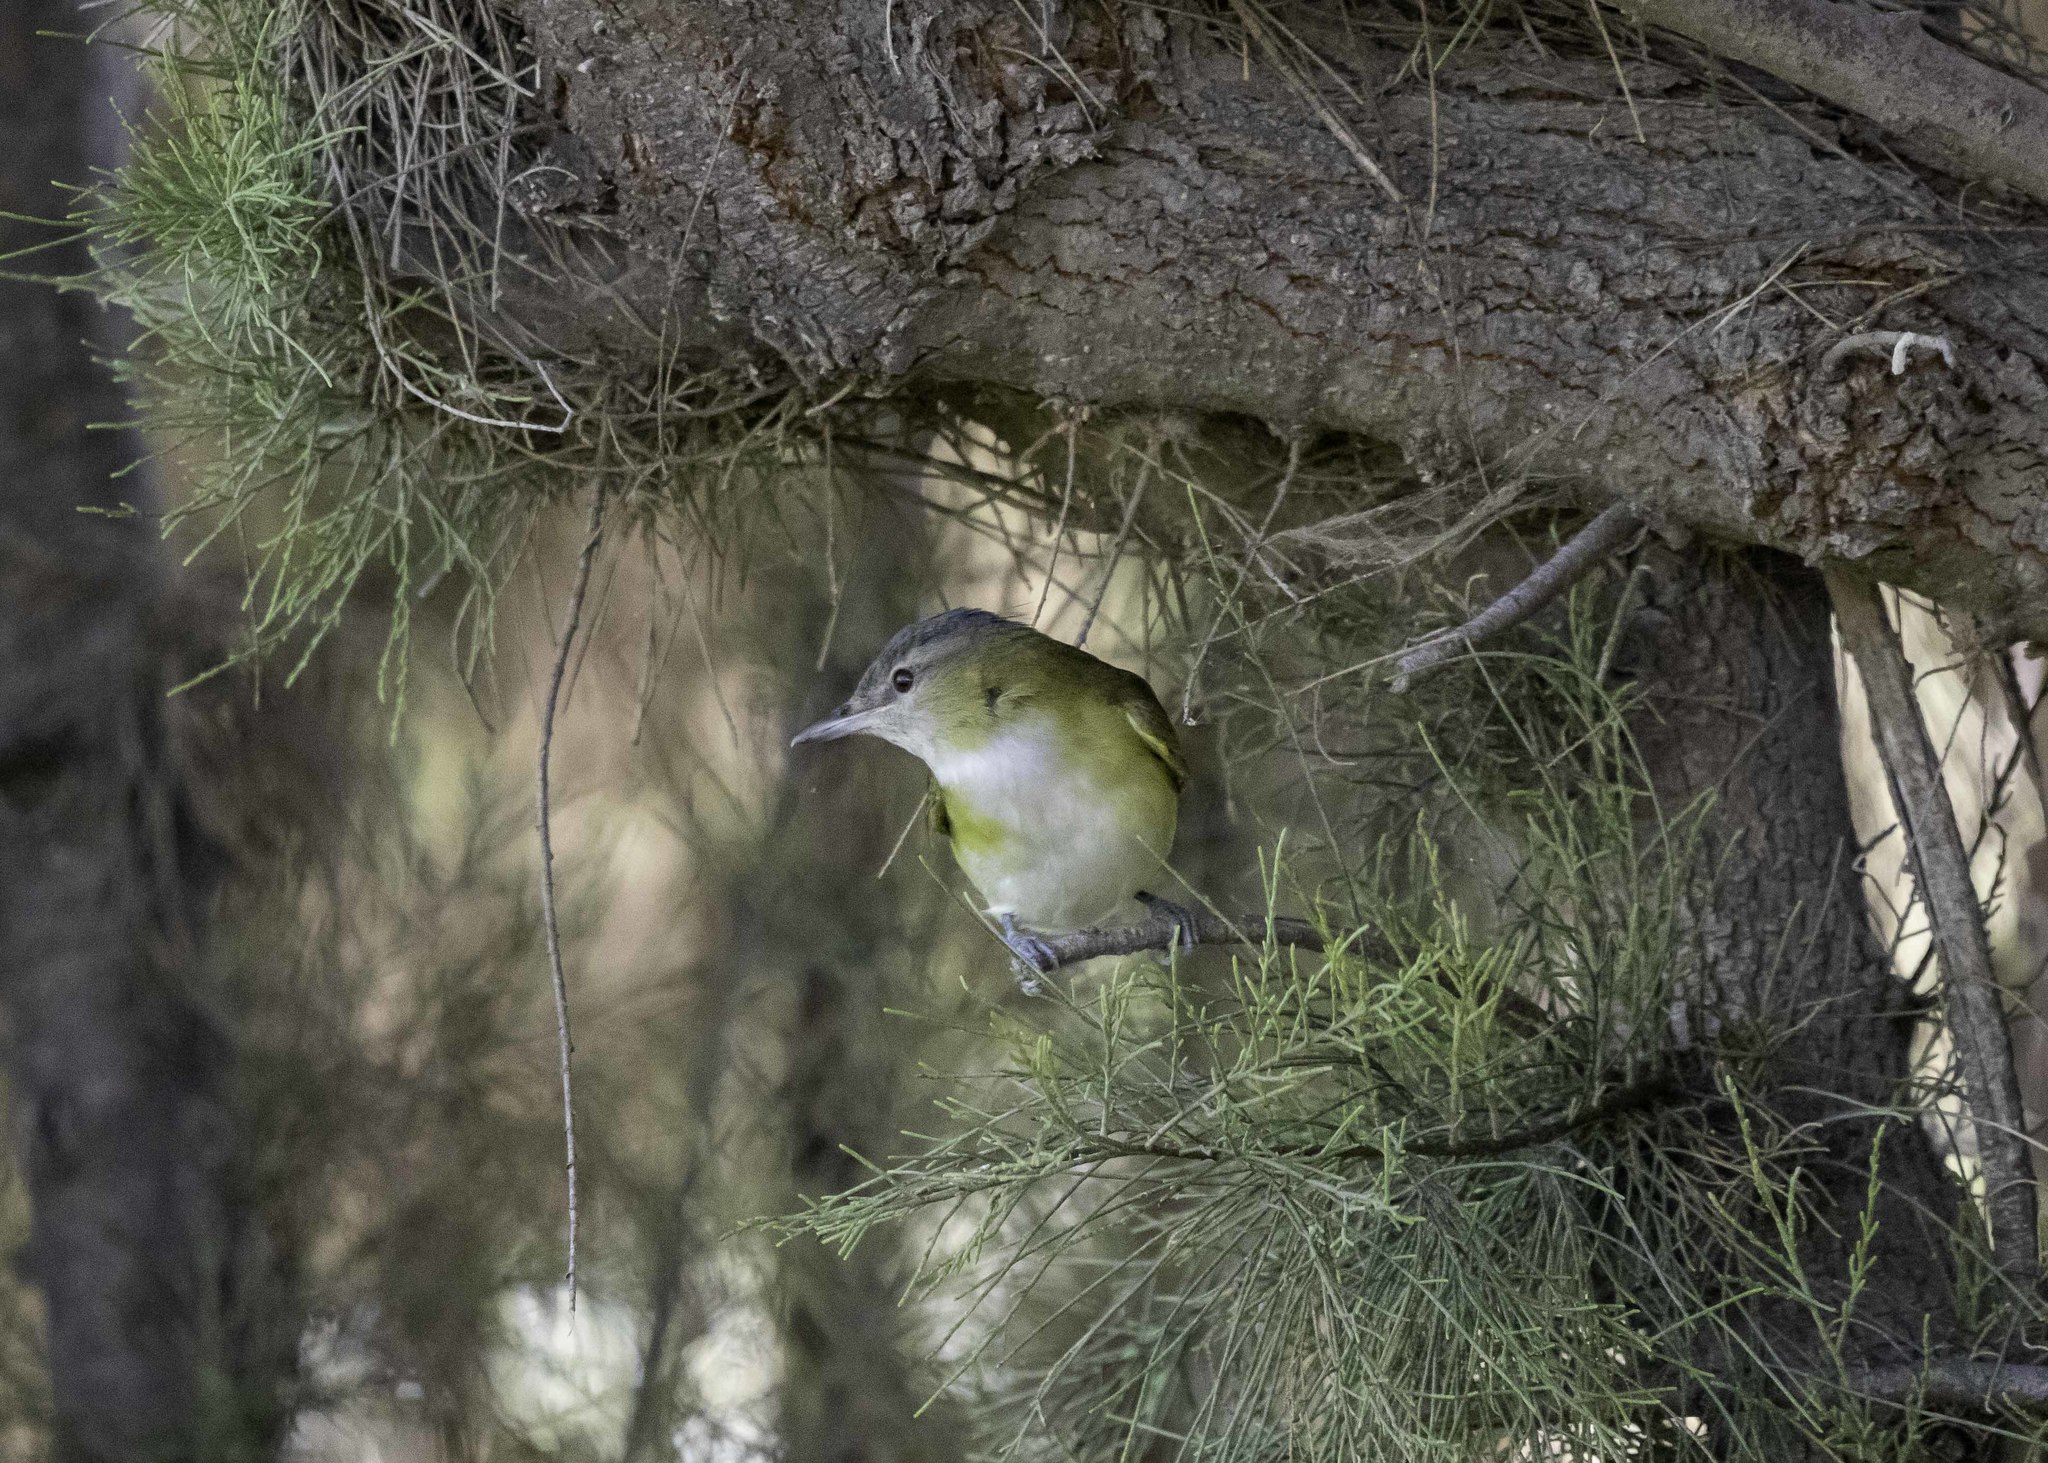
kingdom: Animalia
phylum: Chordata
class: Aves
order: Passeriformes
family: Vireonidae
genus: Vireo
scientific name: Vireo flavoviridis
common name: Yellow-green vireo
